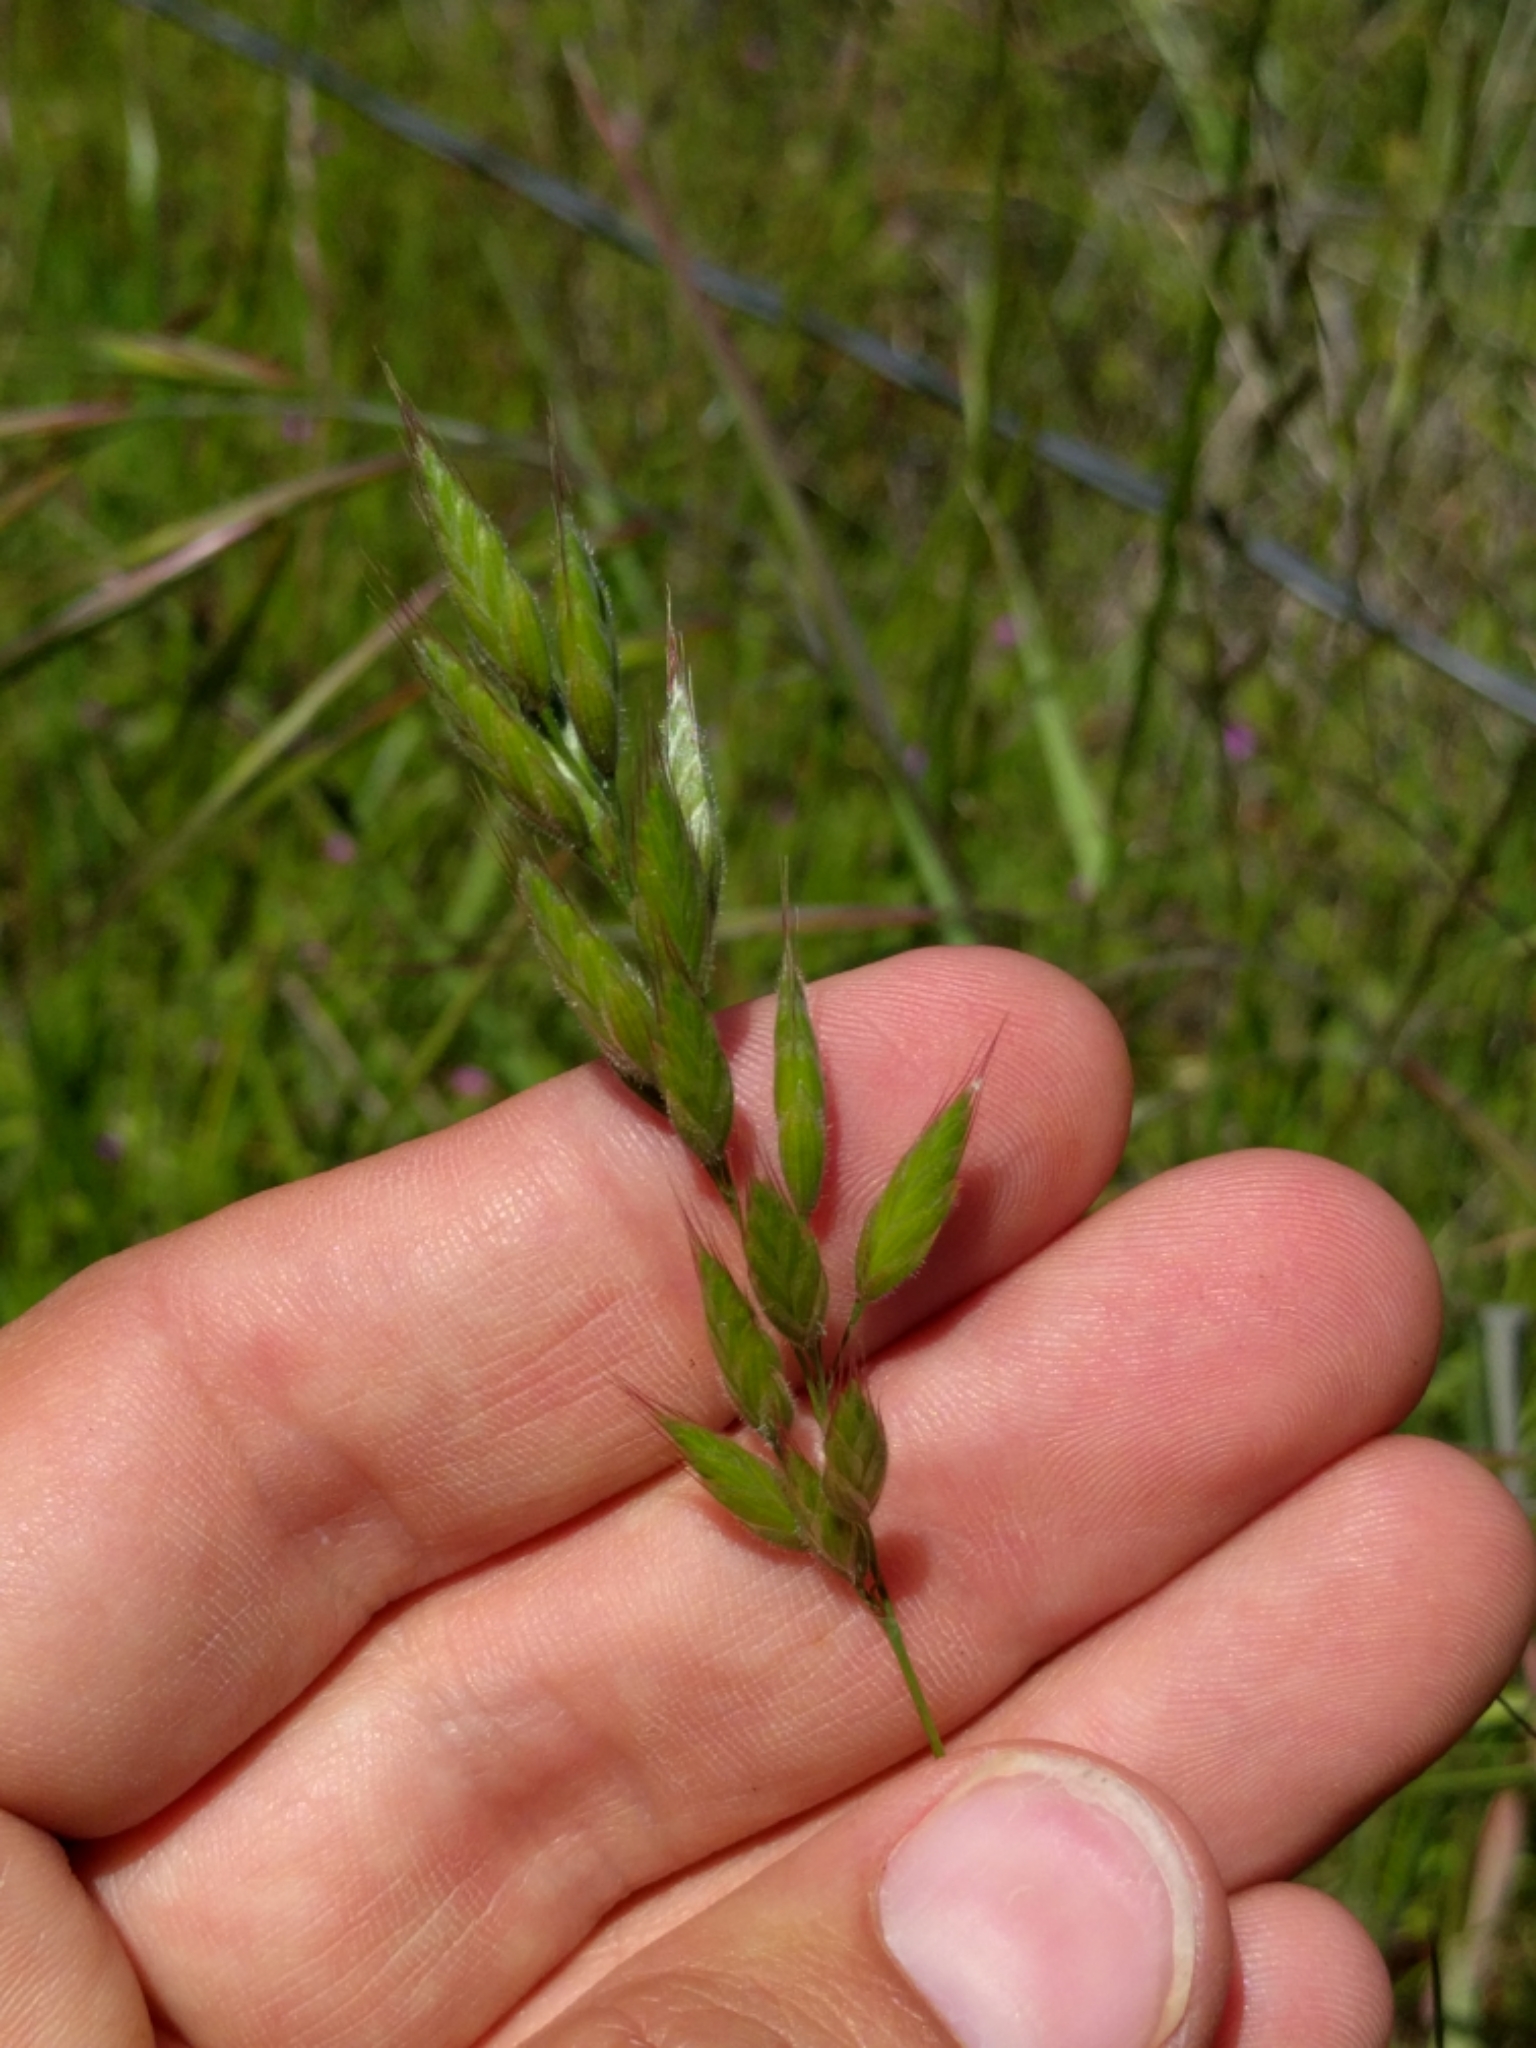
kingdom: Plantae
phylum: Tracheophyta
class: Liliopsida
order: Poales
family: Poaceae
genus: Bromus
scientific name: Bromus hordeaceus
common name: Soft brome
